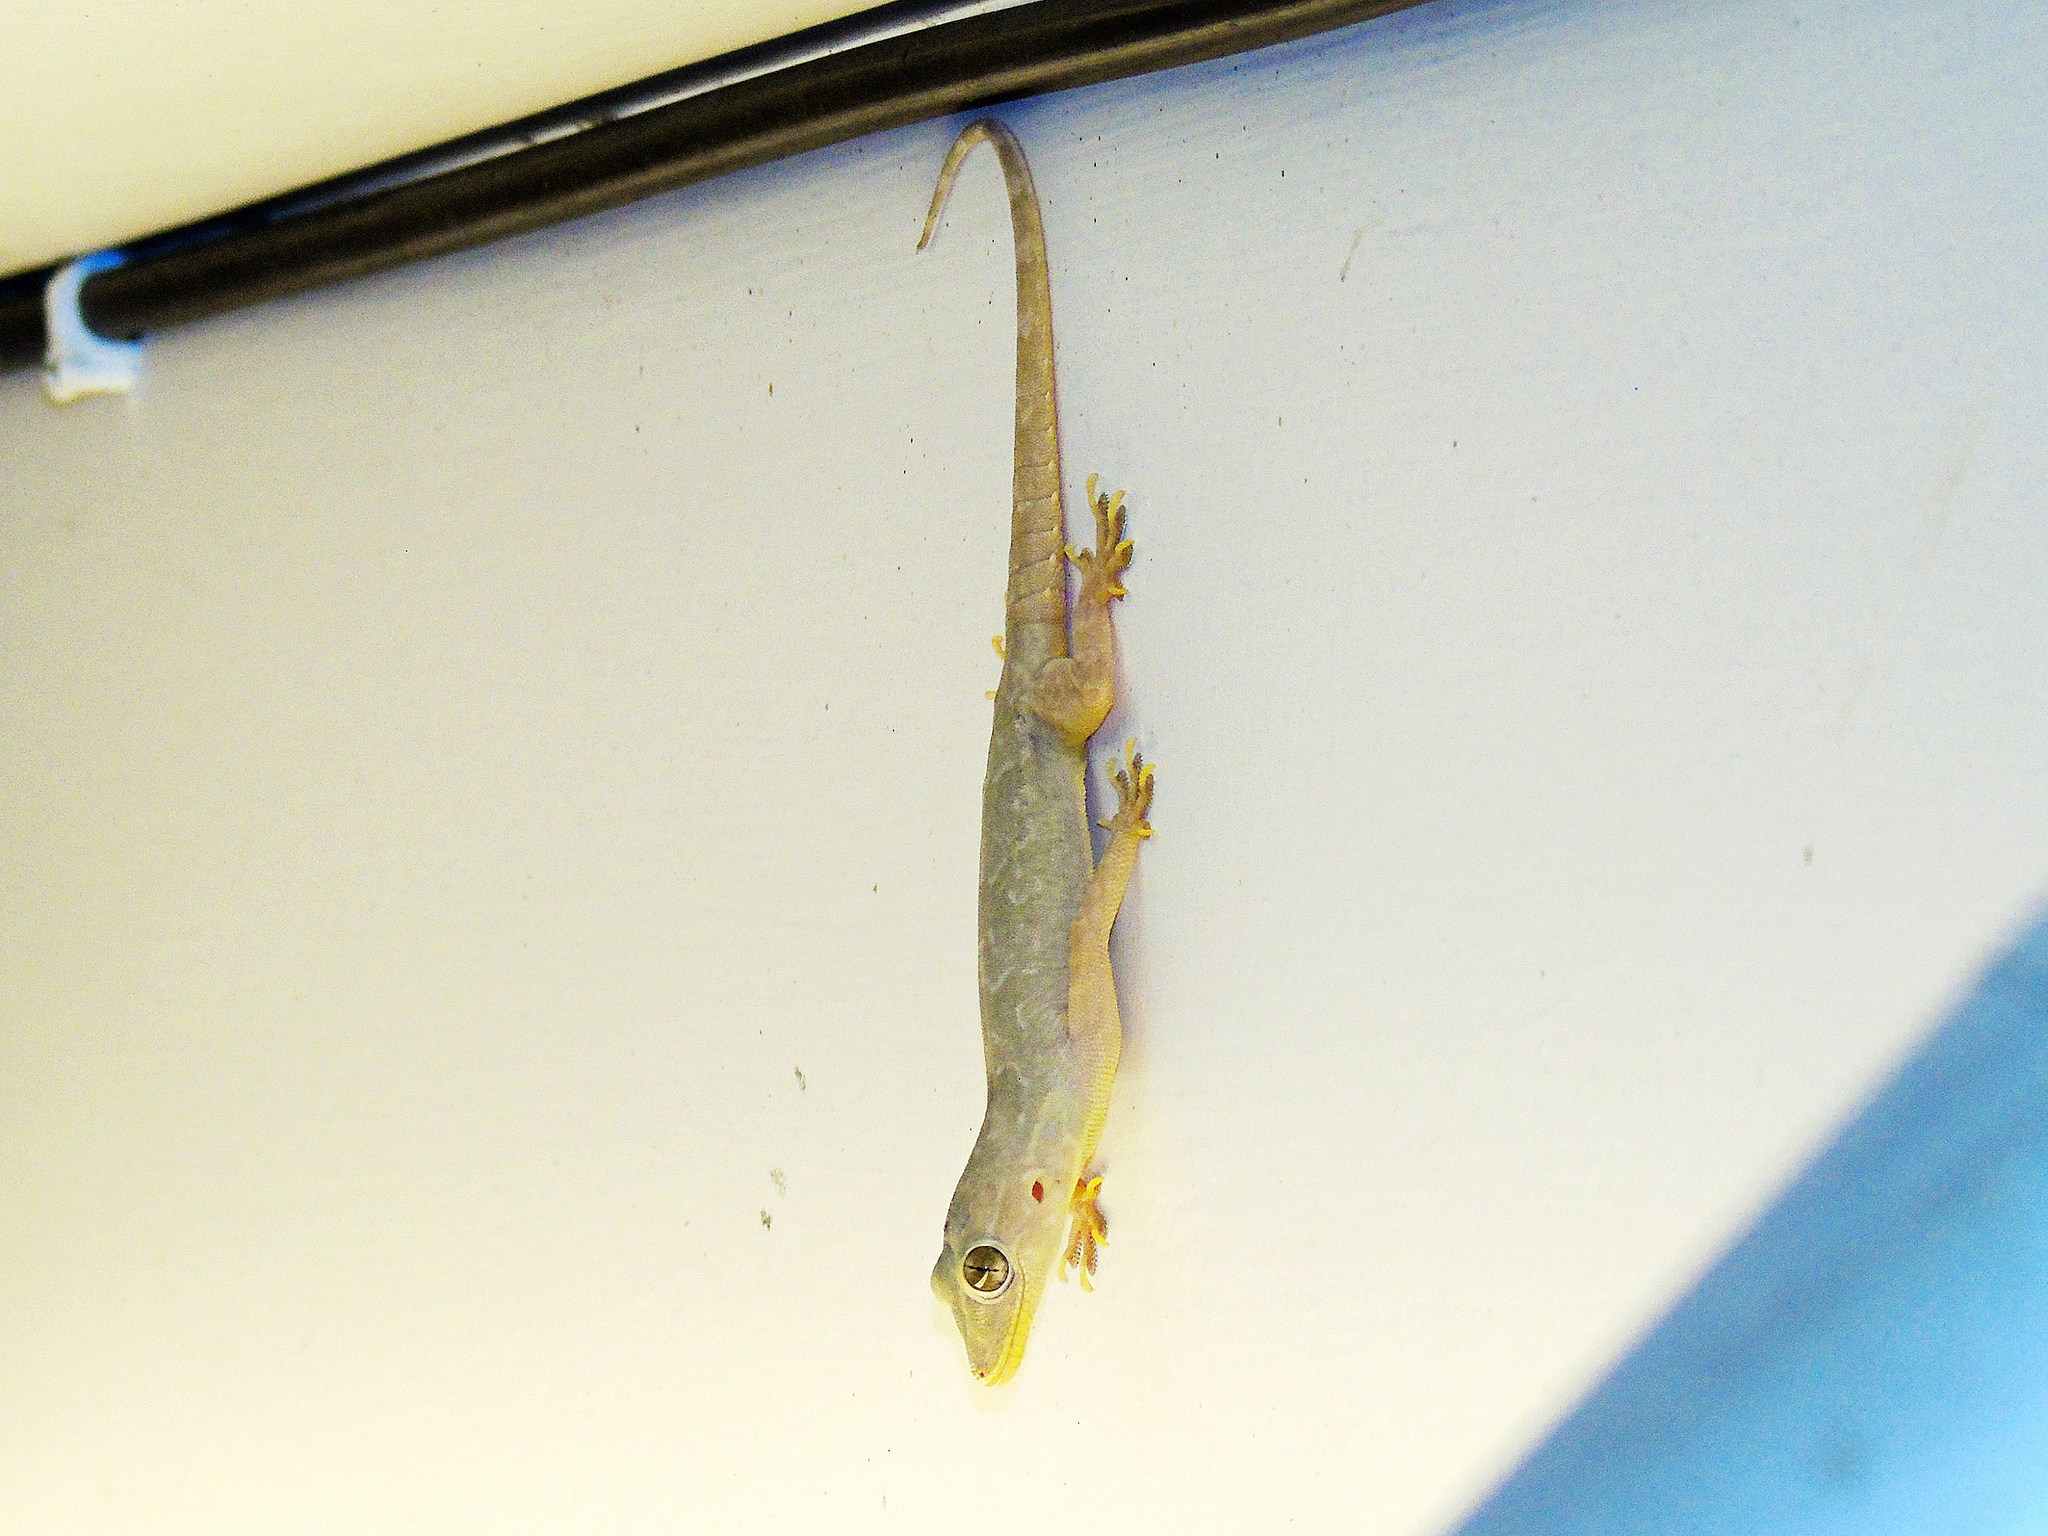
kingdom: Animalia
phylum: Chordata
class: Squamata
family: Gekkonidae
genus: Hemidactylus
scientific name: Hemidactylus flaviviridis
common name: Northern house gecko
